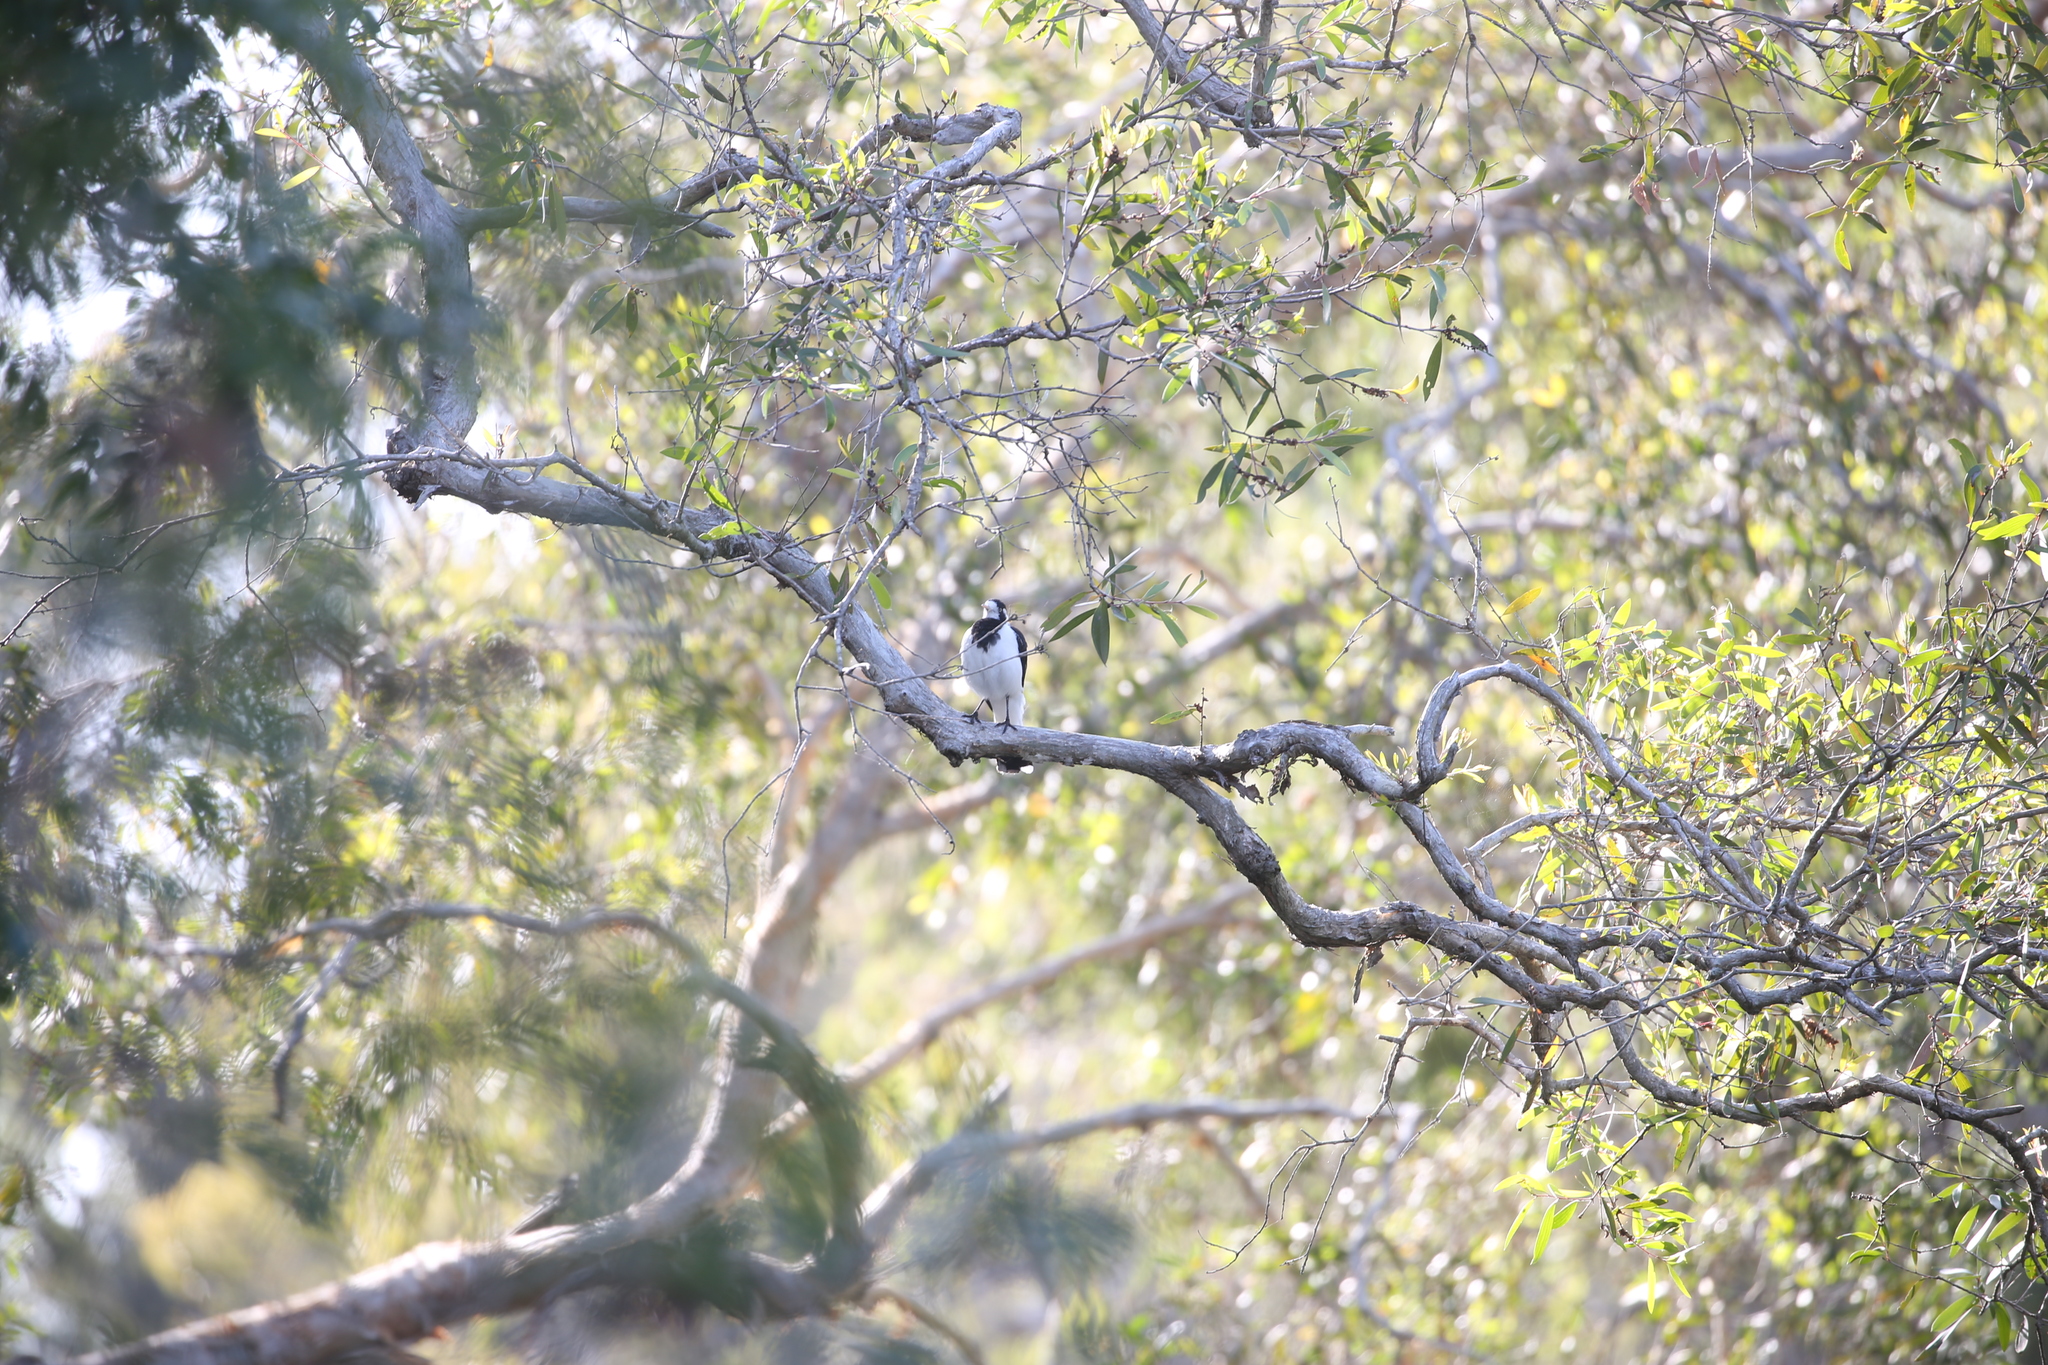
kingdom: Animalia
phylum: Chordata
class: Aves
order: Passeriformes
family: Monarchidae
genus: Grallina
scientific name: Grallina cyanoleuca
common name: Magpie-lark
